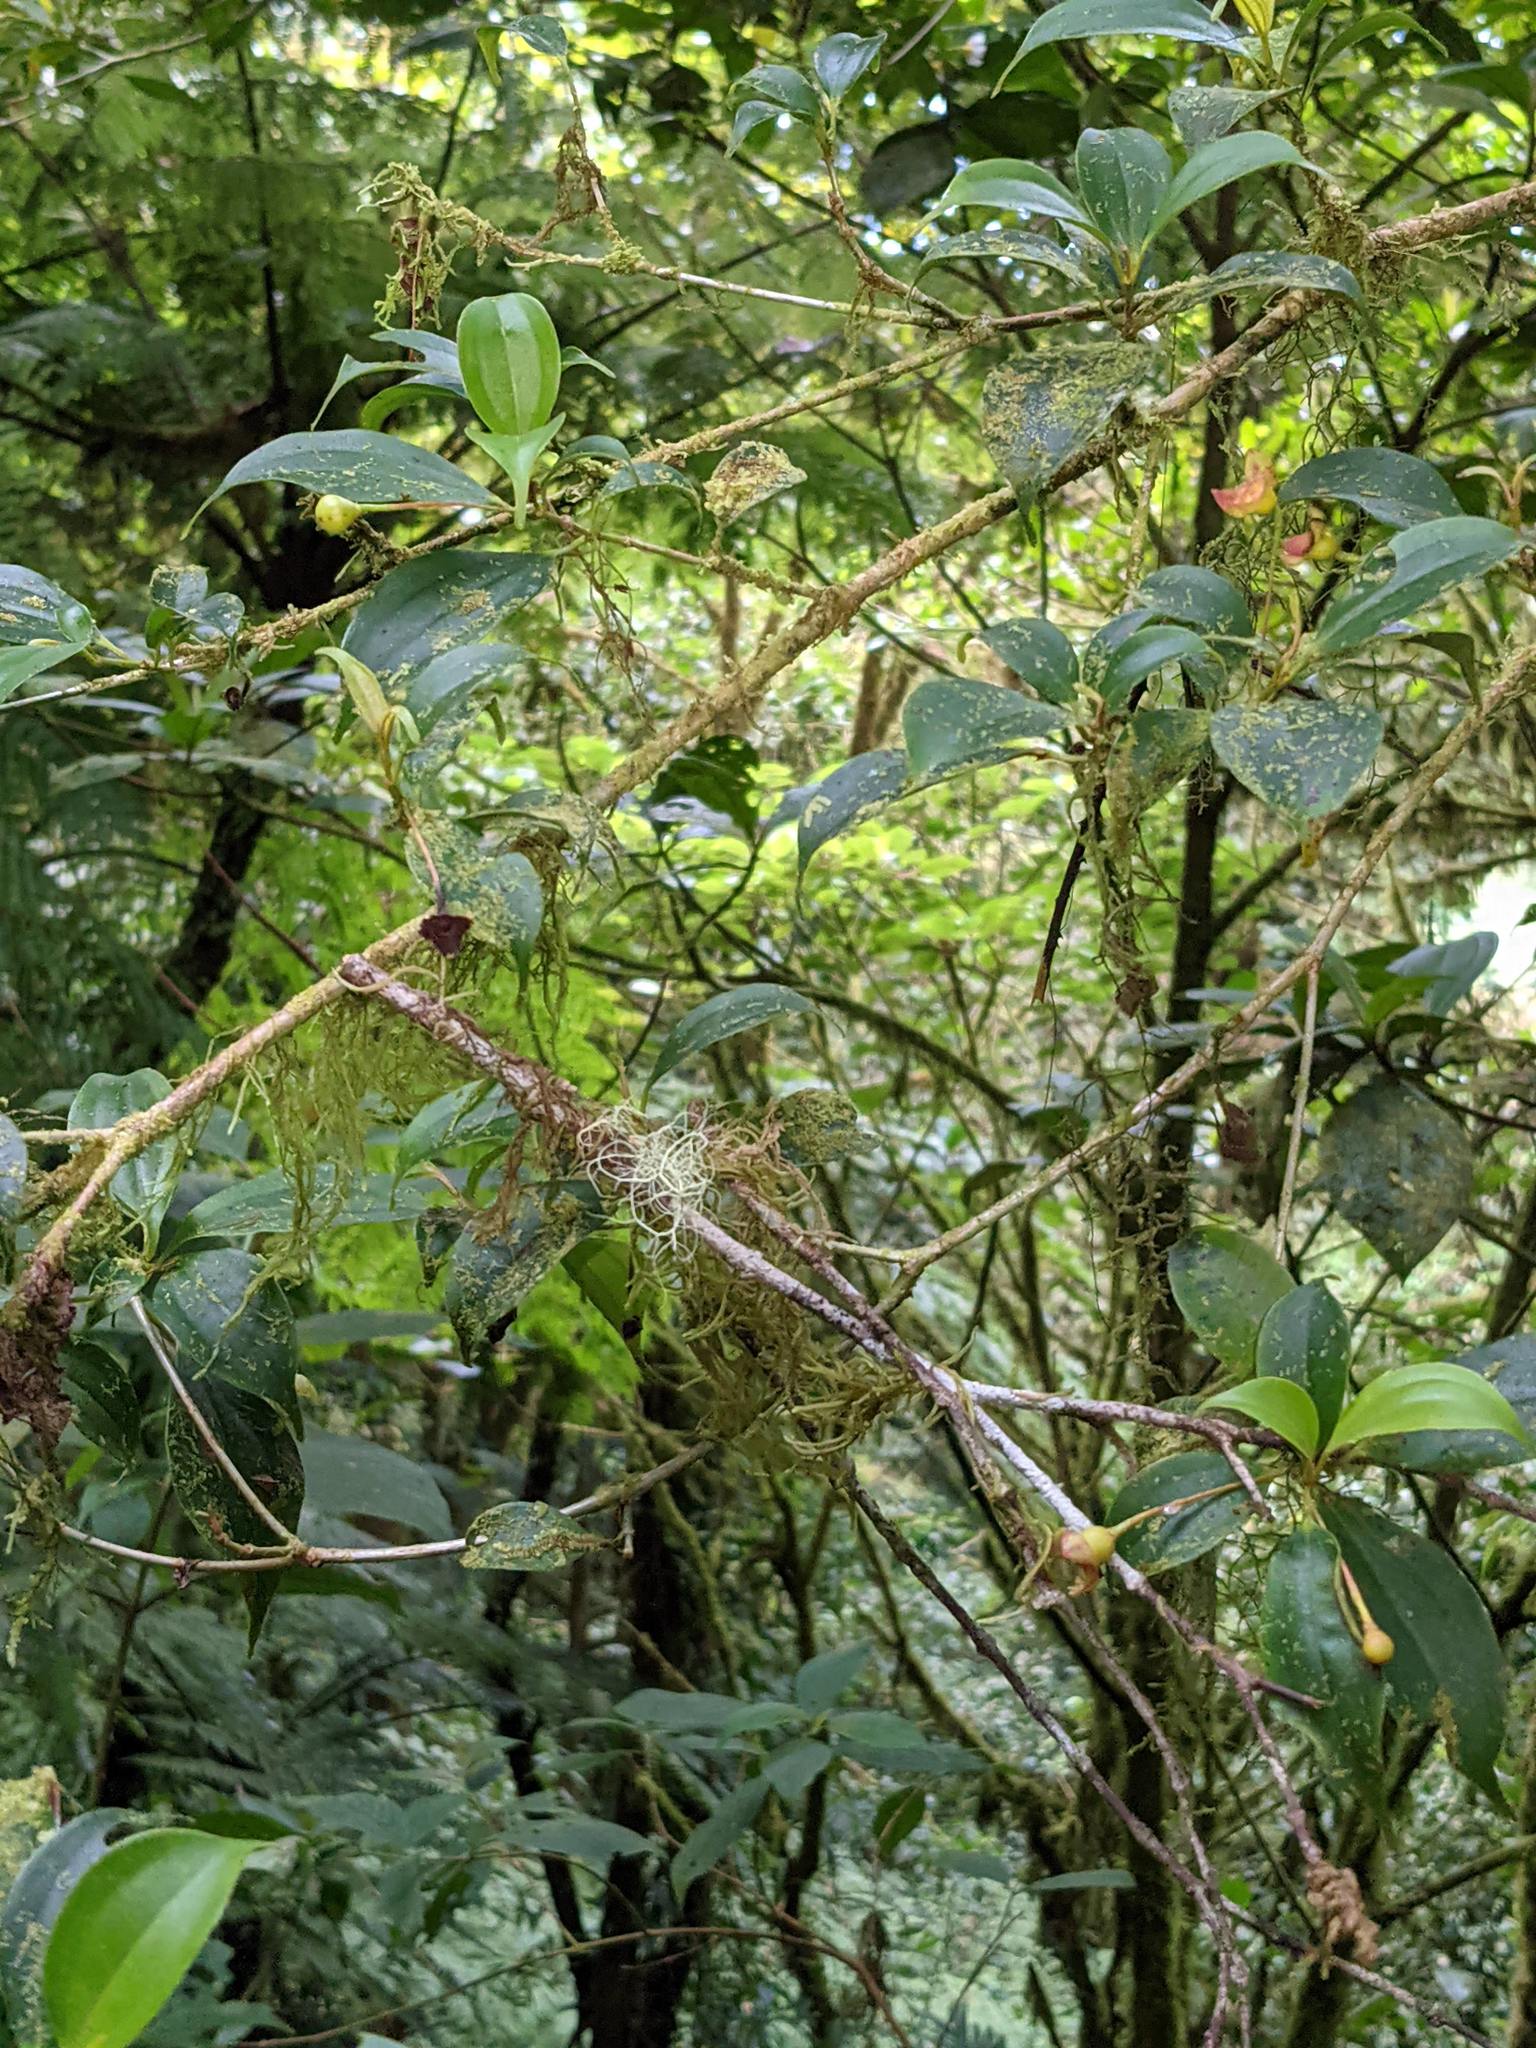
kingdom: Plantae
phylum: Tracheophyta
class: Magnoliopsida
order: Myrtales
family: Melastomataceae
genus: Blakea
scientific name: Blakea anomala
